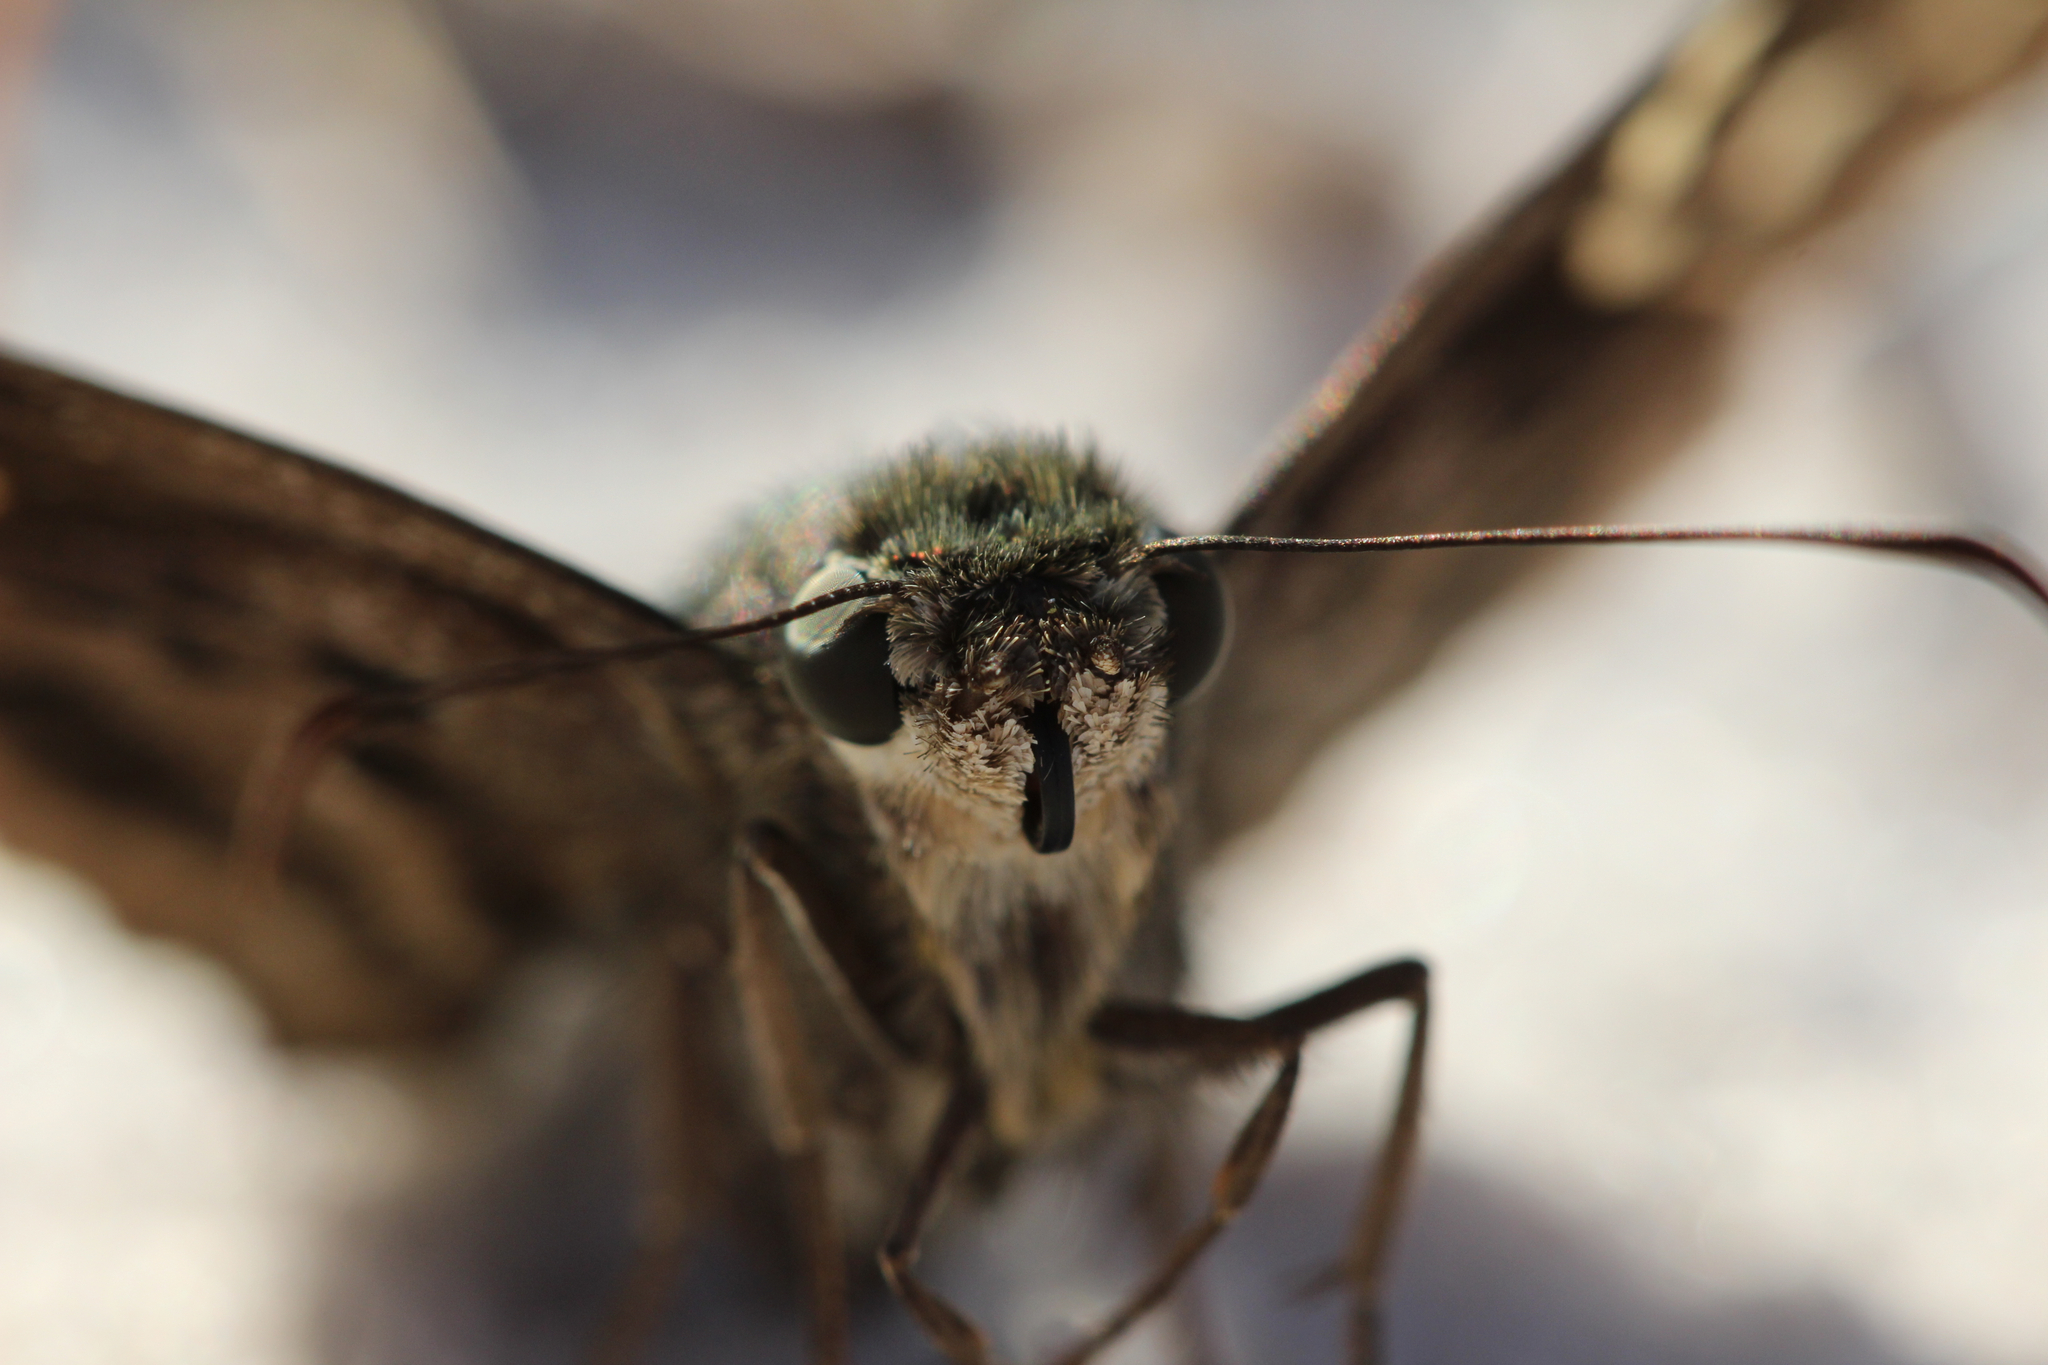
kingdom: Animalia
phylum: Arthropoda
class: Insecta
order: Lepidoptera
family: Hesperiidae
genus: Urbanus
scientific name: Urbanus proteus
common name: Long-tailed skipper
